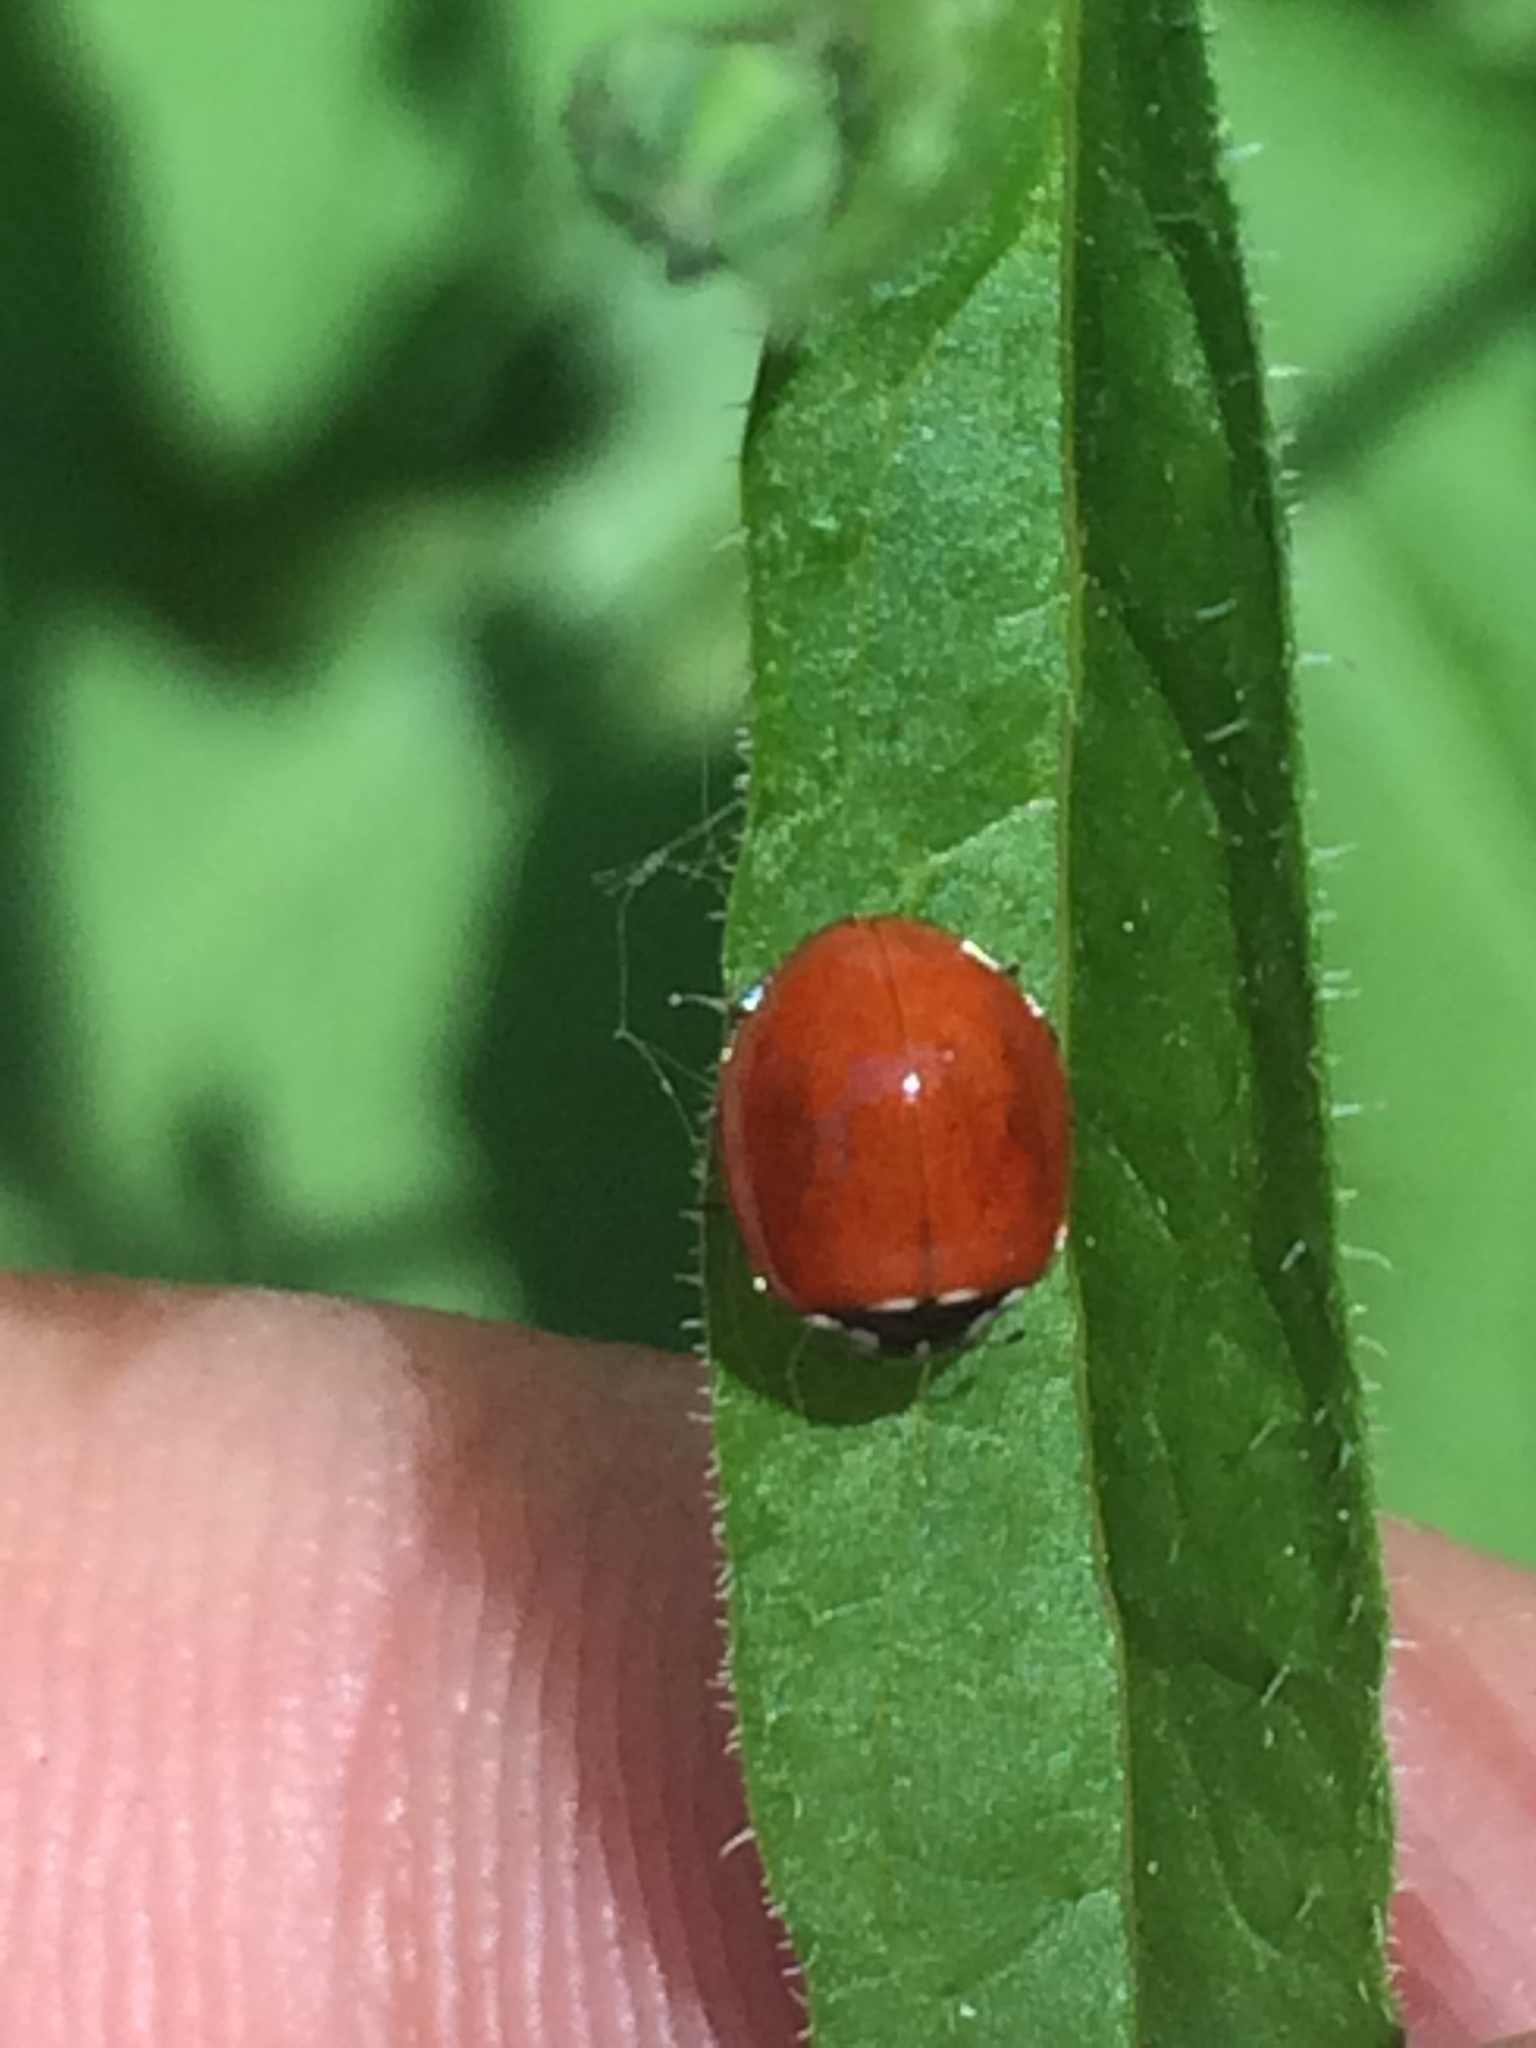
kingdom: Animalia
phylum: Arthropoda
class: Insecta
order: Coleoptera
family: Coccinellidae
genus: Cycloneda
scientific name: Cycloneda polita
